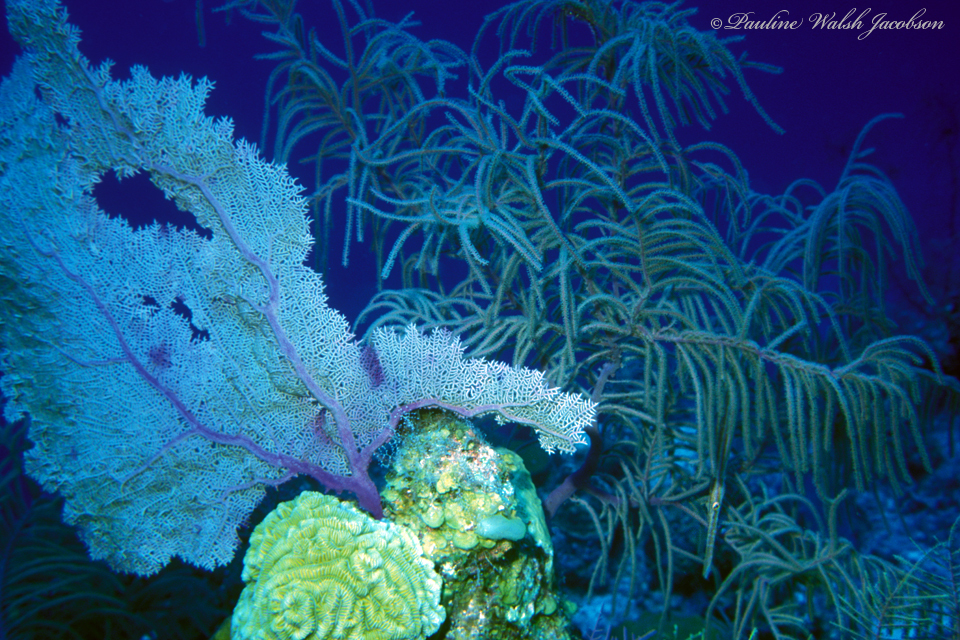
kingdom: Animalia
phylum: Cnidaria
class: Anthozoa
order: Malacalcyonacea
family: Gorgoniidae
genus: Gorgonia
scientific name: Gorgonia ventalina
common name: Common sea fan
